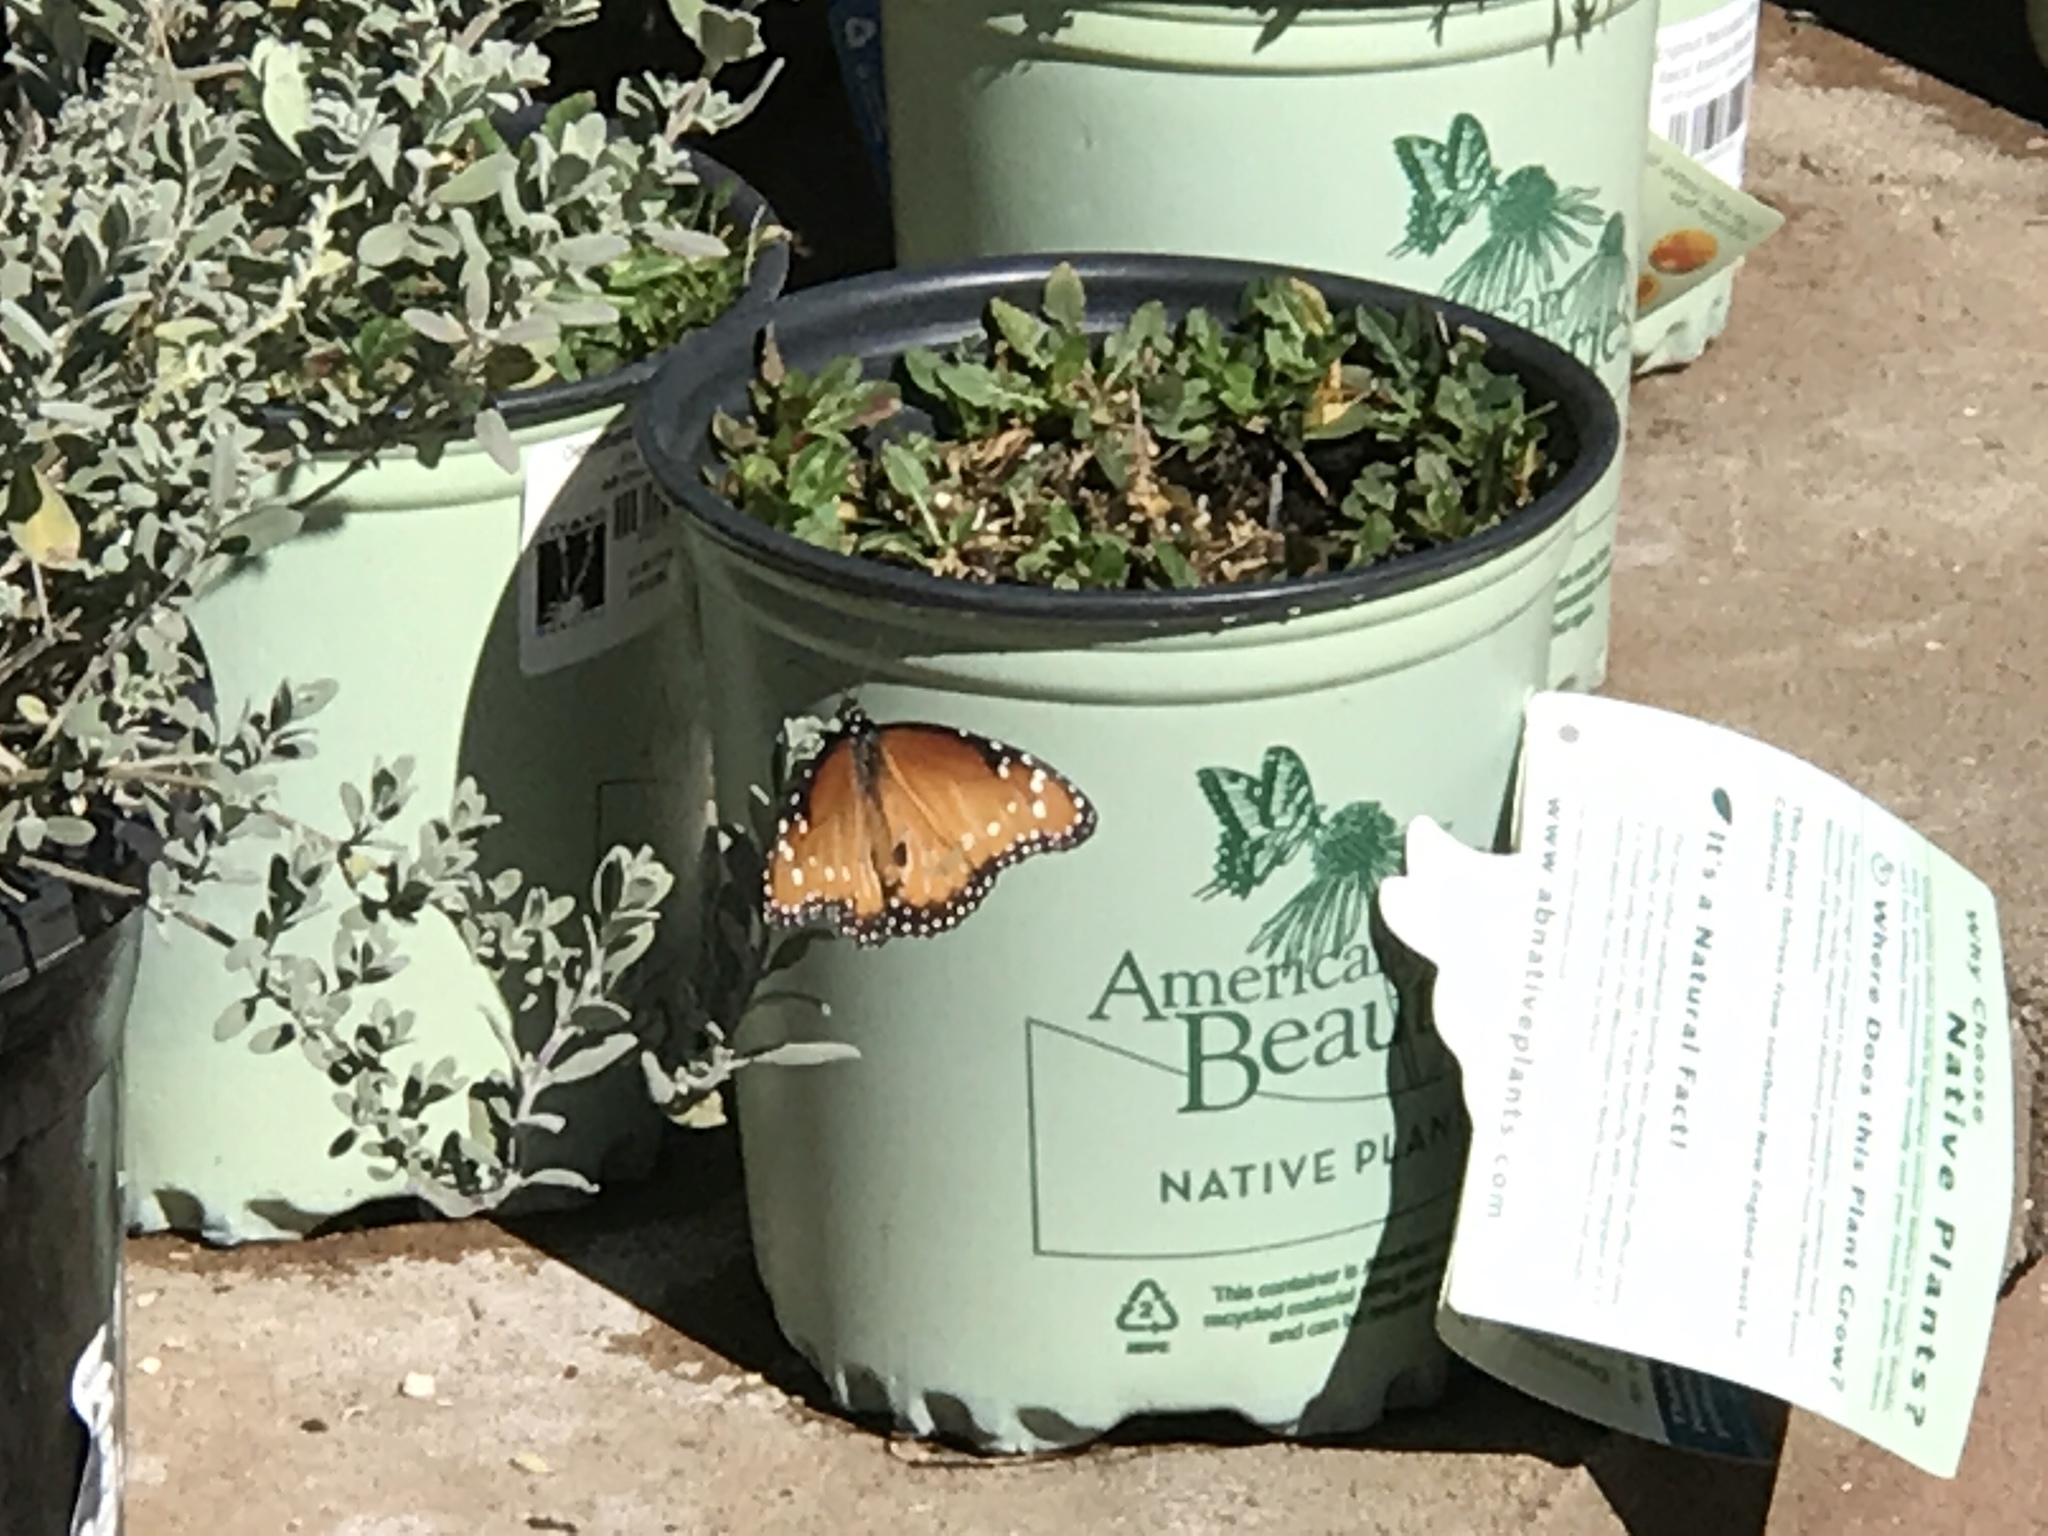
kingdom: Animalia
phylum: Arthropoda
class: Insecta
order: Lepidoptera
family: Nymphalidae
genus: Danaus
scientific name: Danaus gilippus
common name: Queen
